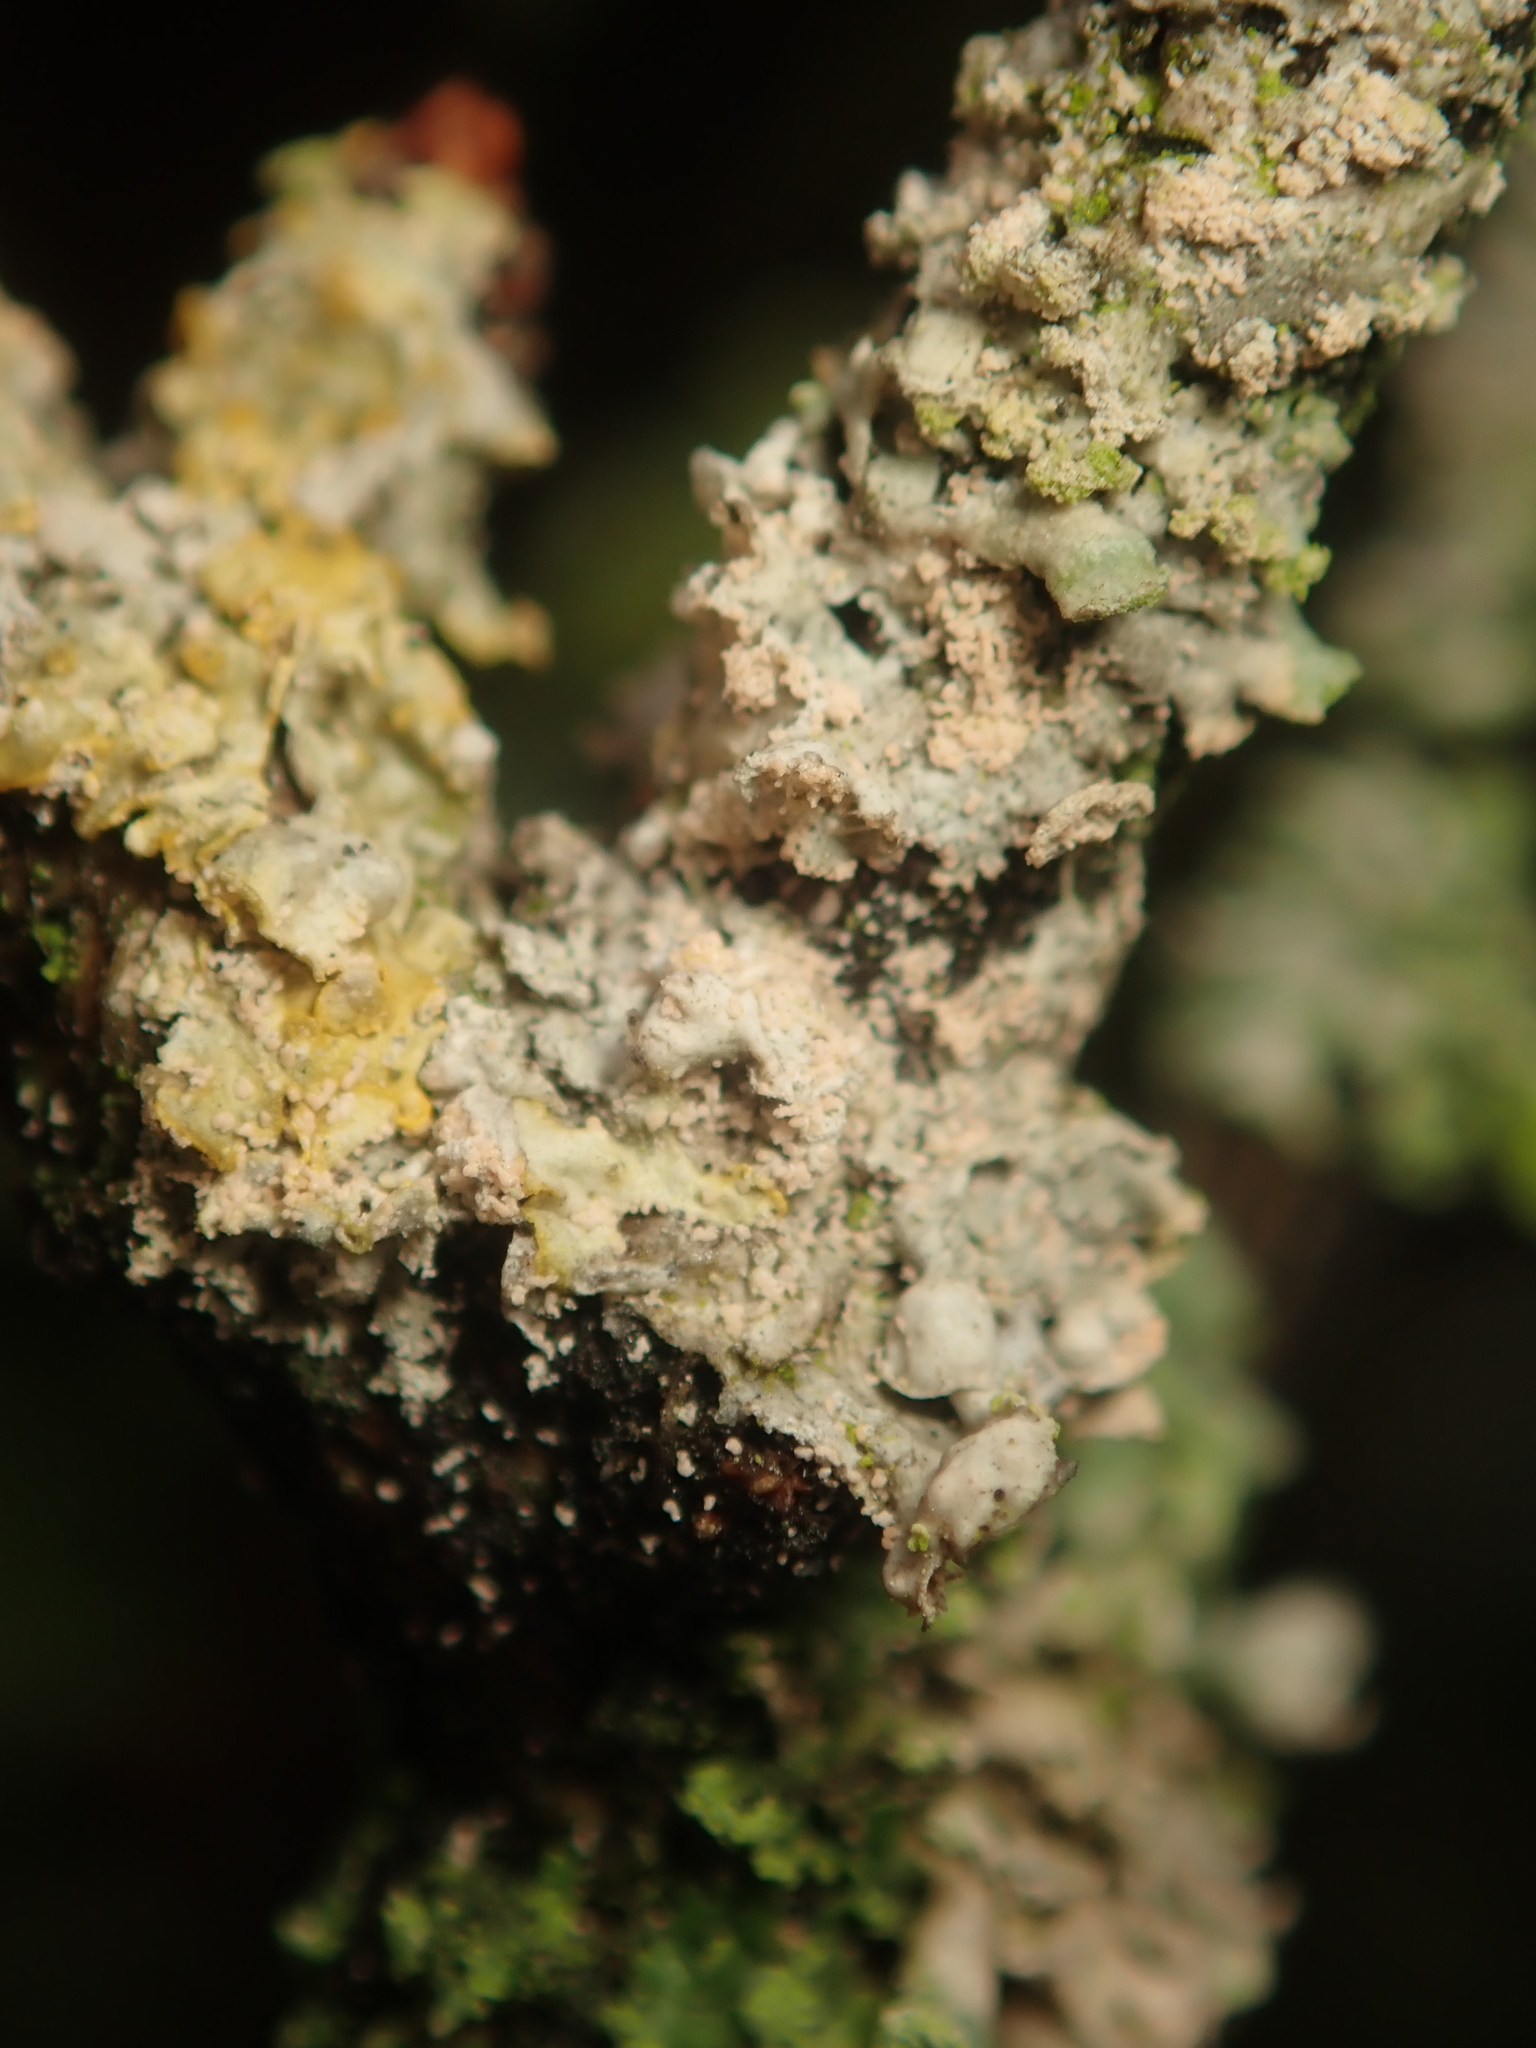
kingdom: Fungi
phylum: Basidiomycota
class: Agaricomycetes
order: Corticiales
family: Corticiaceae
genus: Erythricium
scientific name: Erythricium aurantiacum
